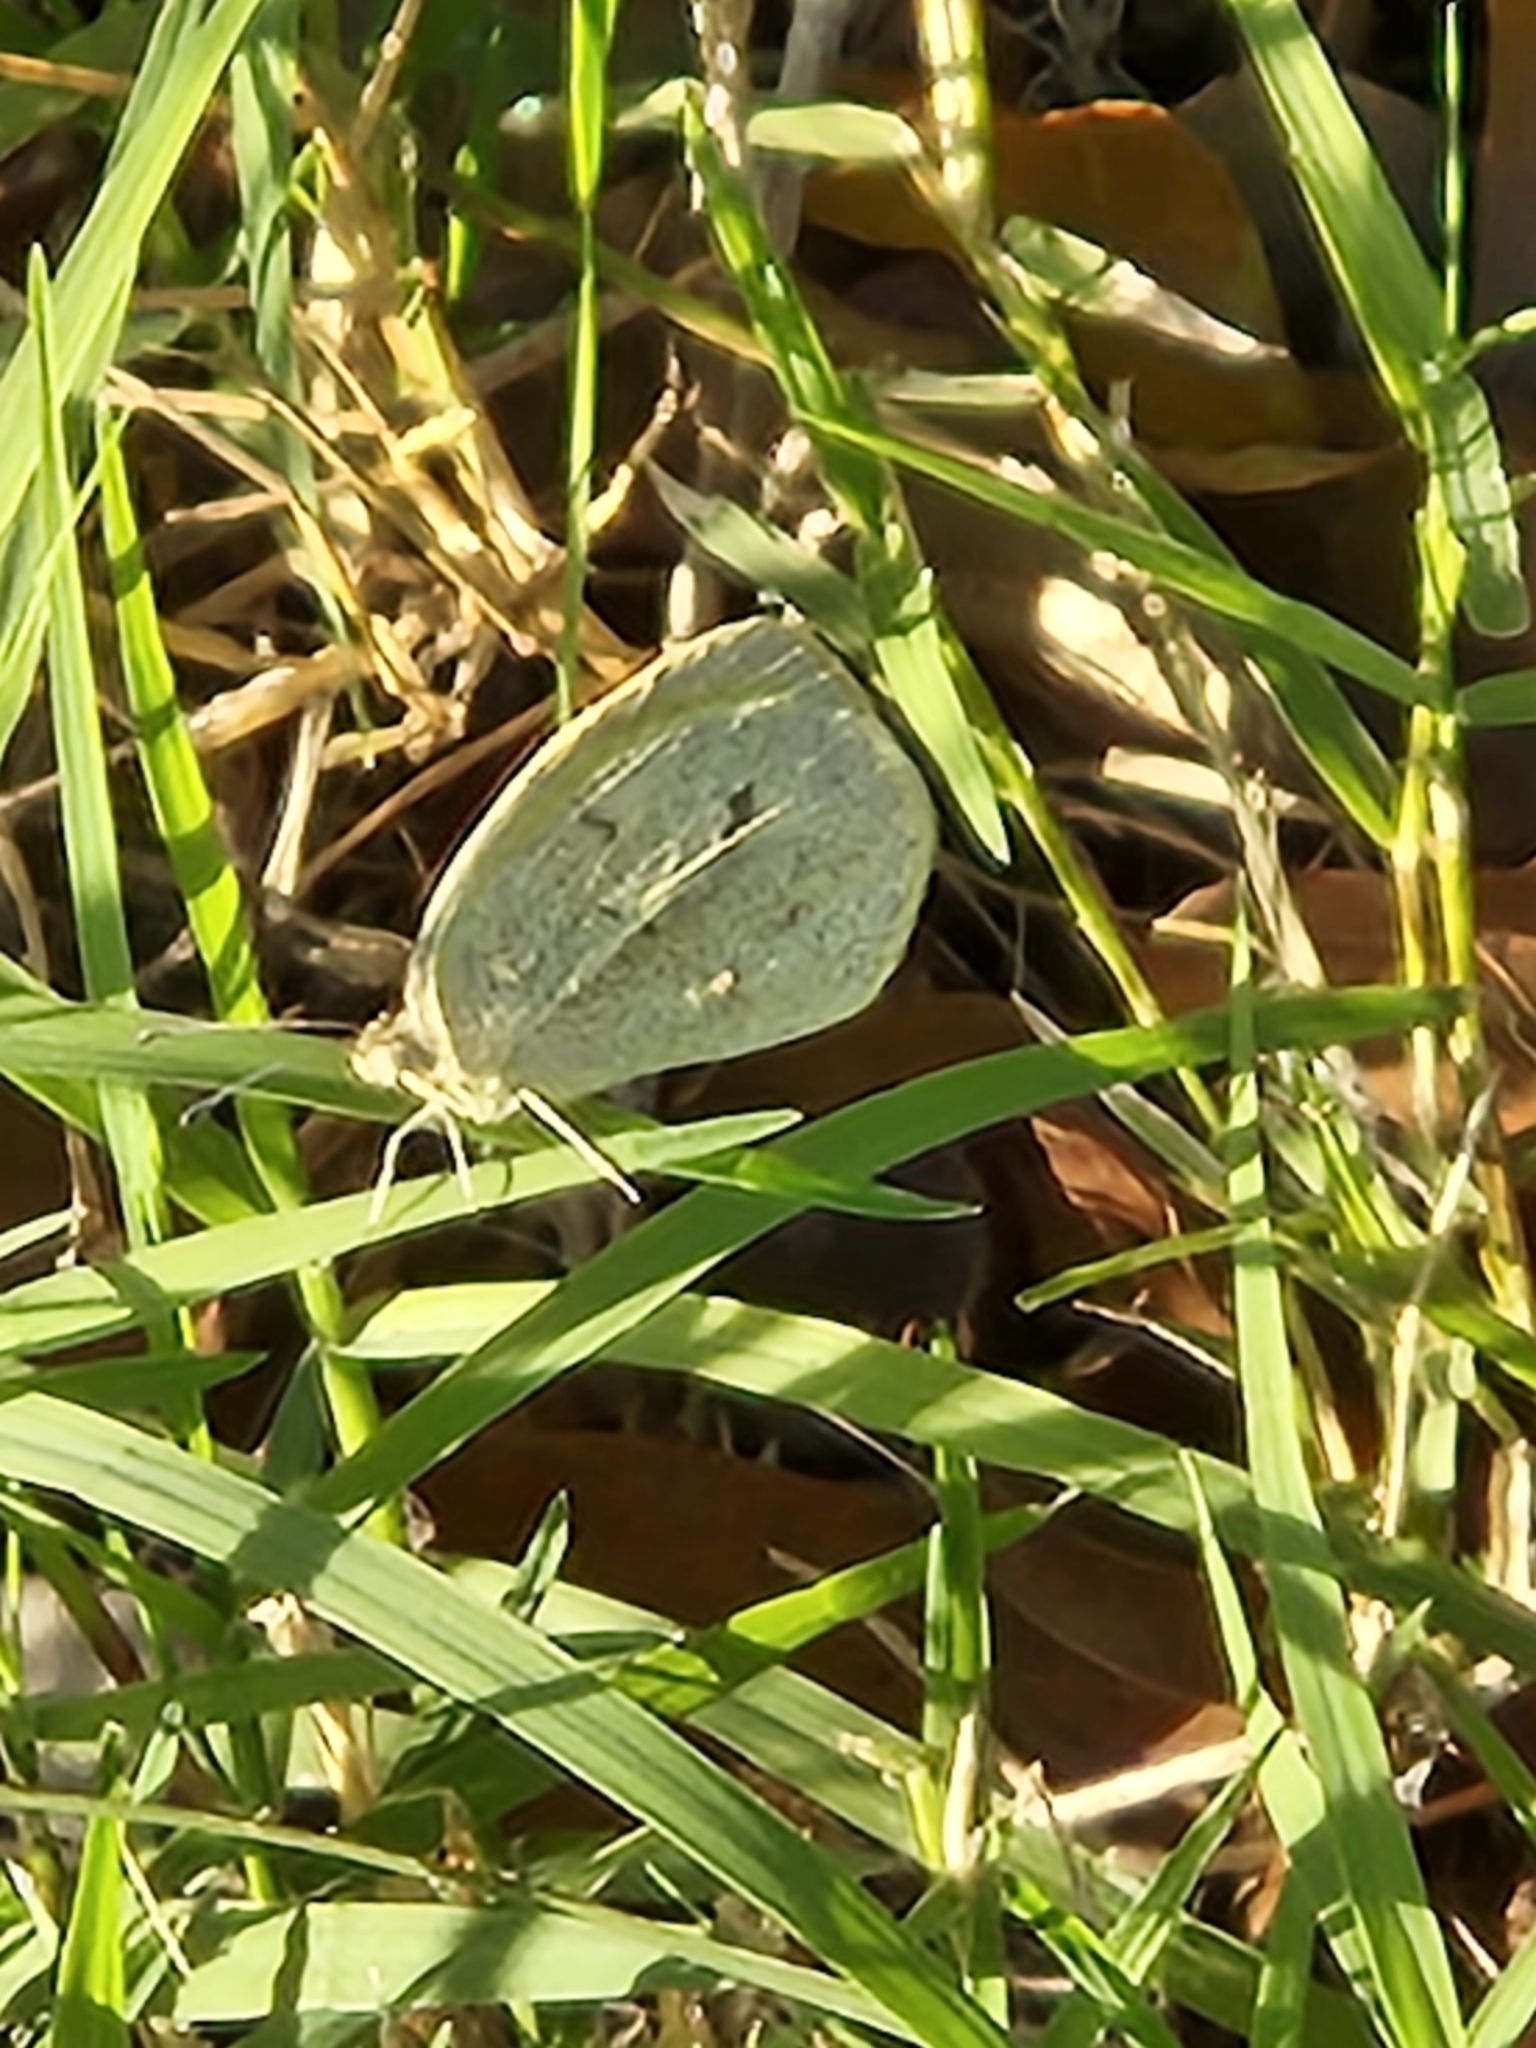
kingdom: Animalia
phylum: Arthropoda
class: Insecta
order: Lepidoptera
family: Pieridae
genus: Eurema
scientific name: Eurema daira
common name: Barred sulphur
